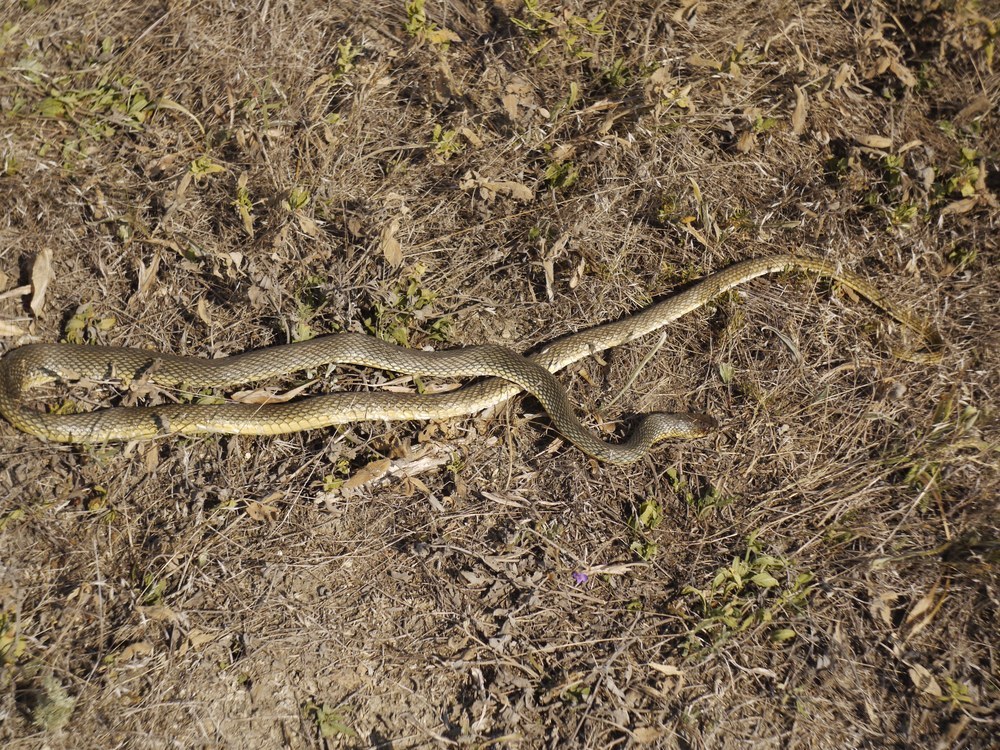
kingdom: Animalia
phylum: Chordata
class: Squamata
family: Colubridae
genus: Dolichophis
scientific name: Dolichophis caspius
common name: Large whip snake
